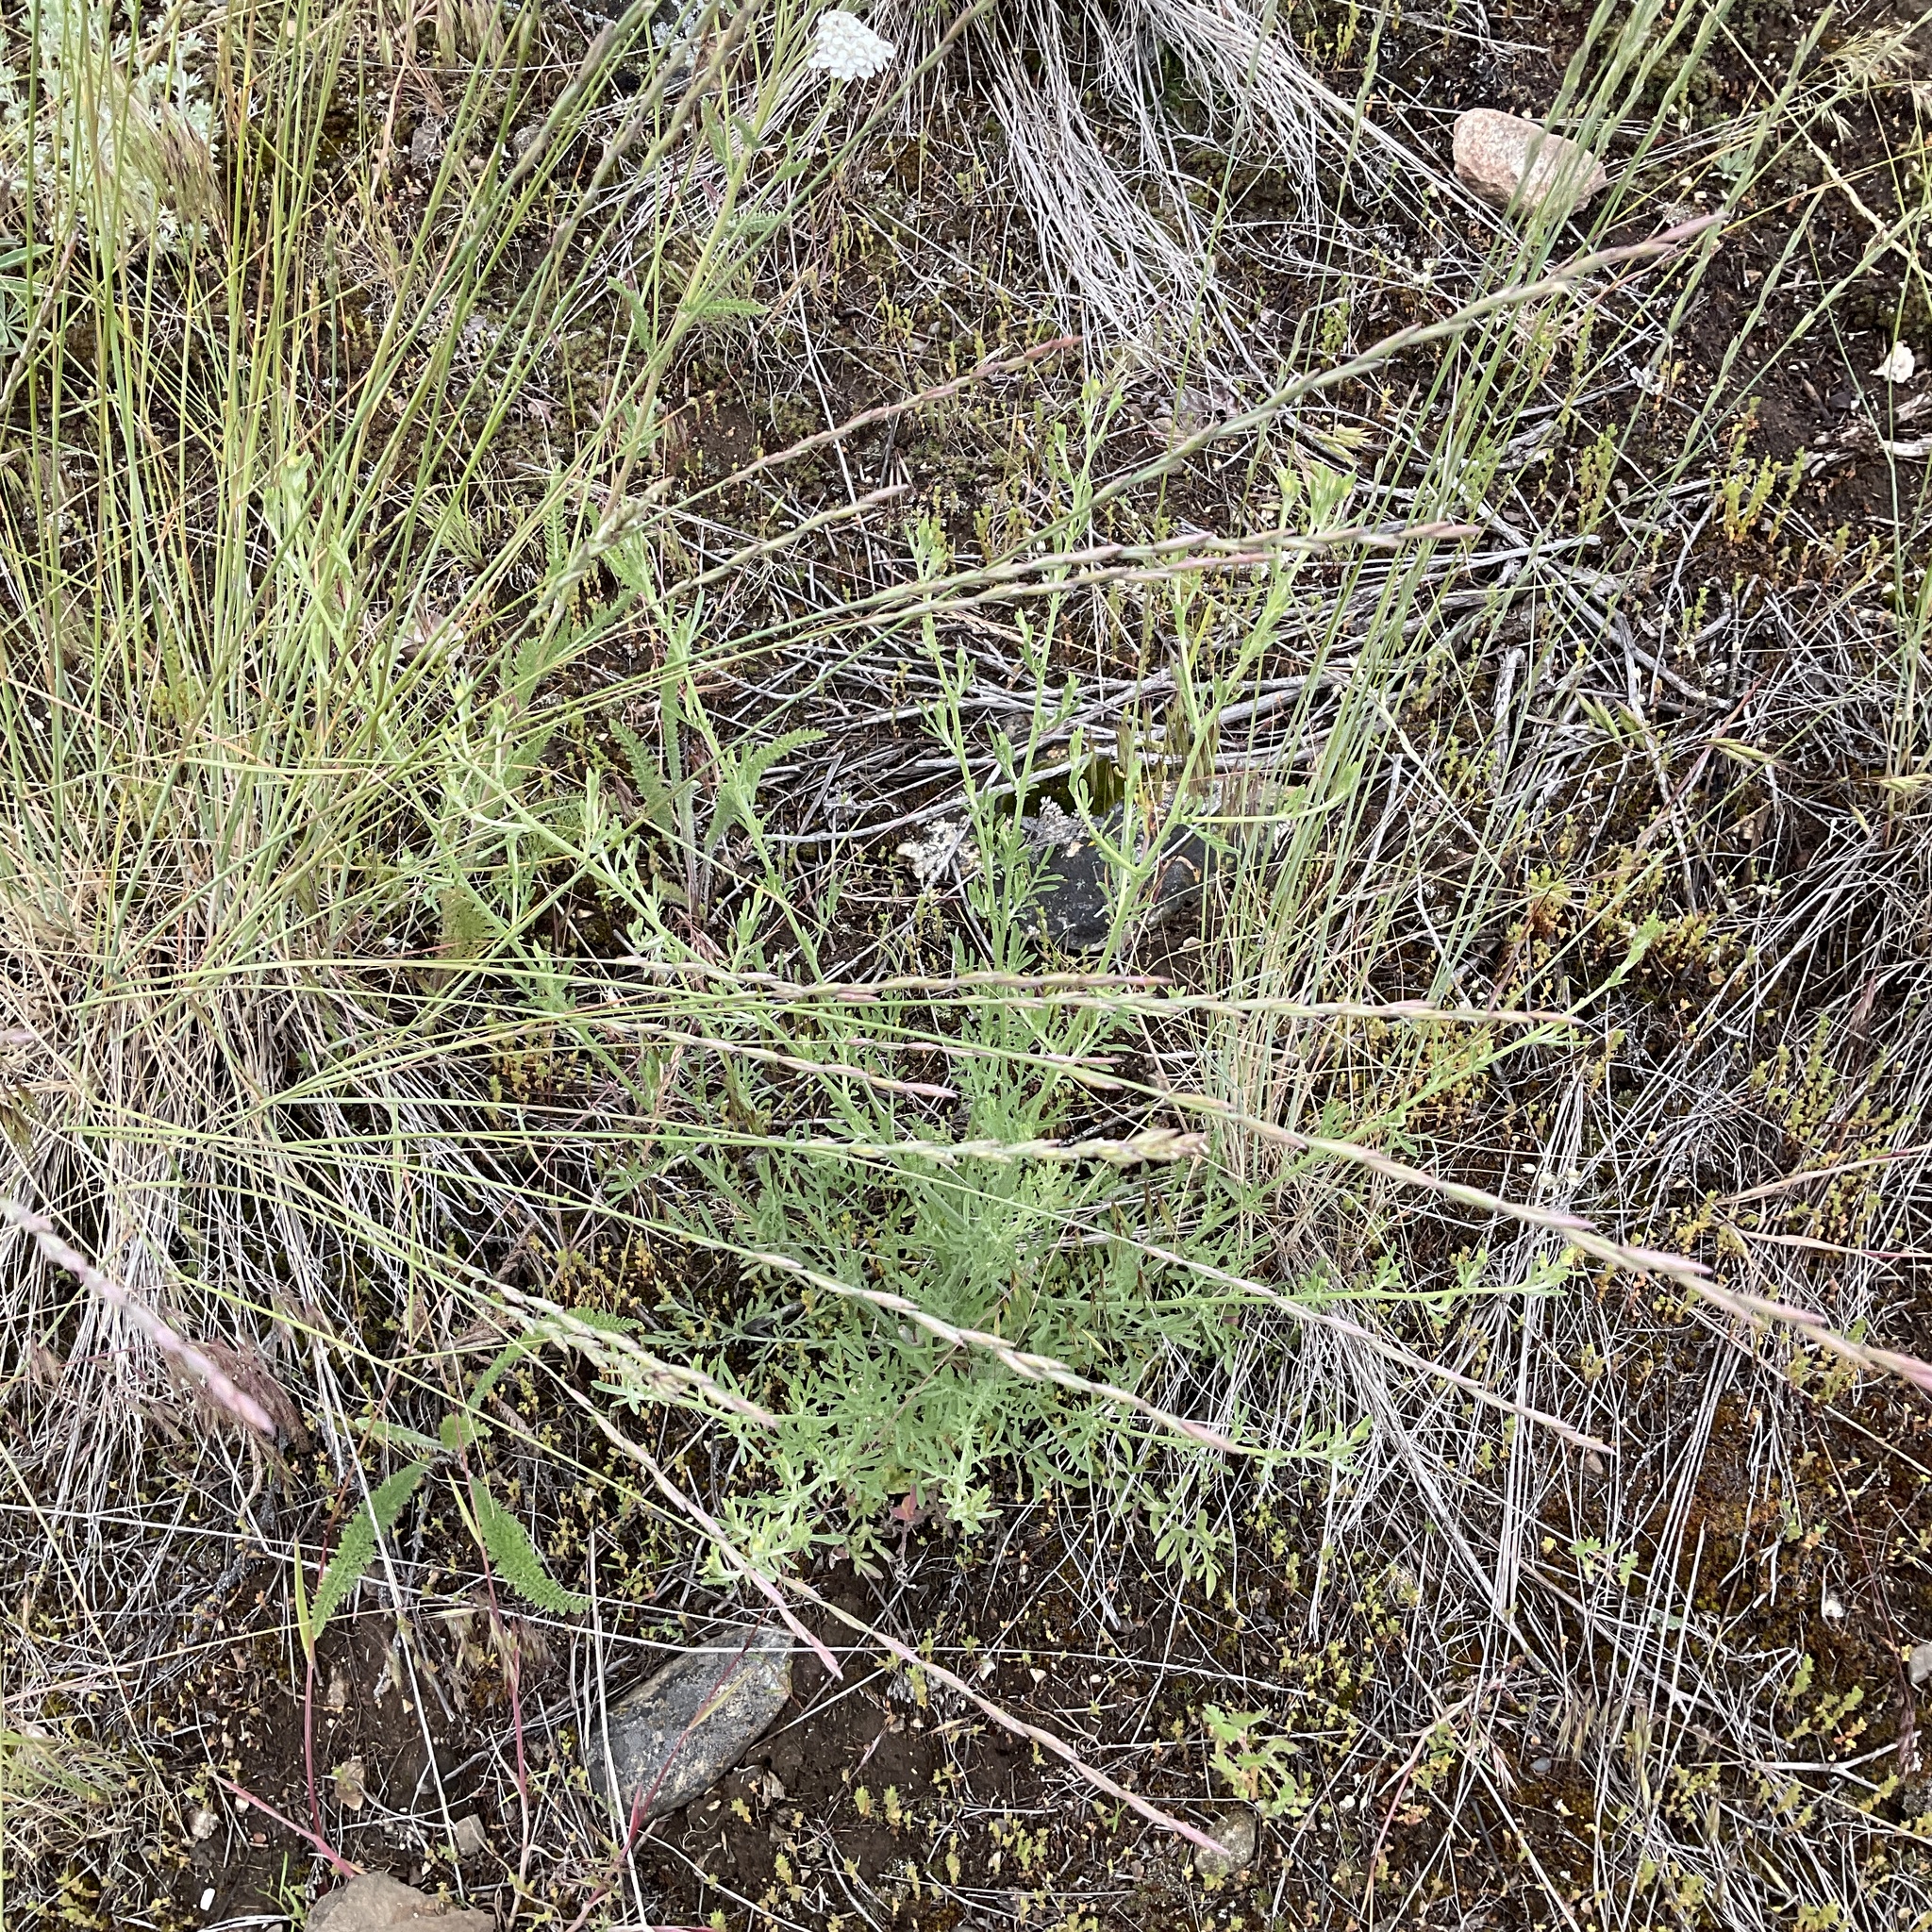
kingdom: Plantae
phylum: Tracheophyta
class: Magnoliopsida
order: Asterales
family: Asteraceae
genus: Centaurea
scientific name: Centaurea diffusa
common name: Diffuse knapweed
